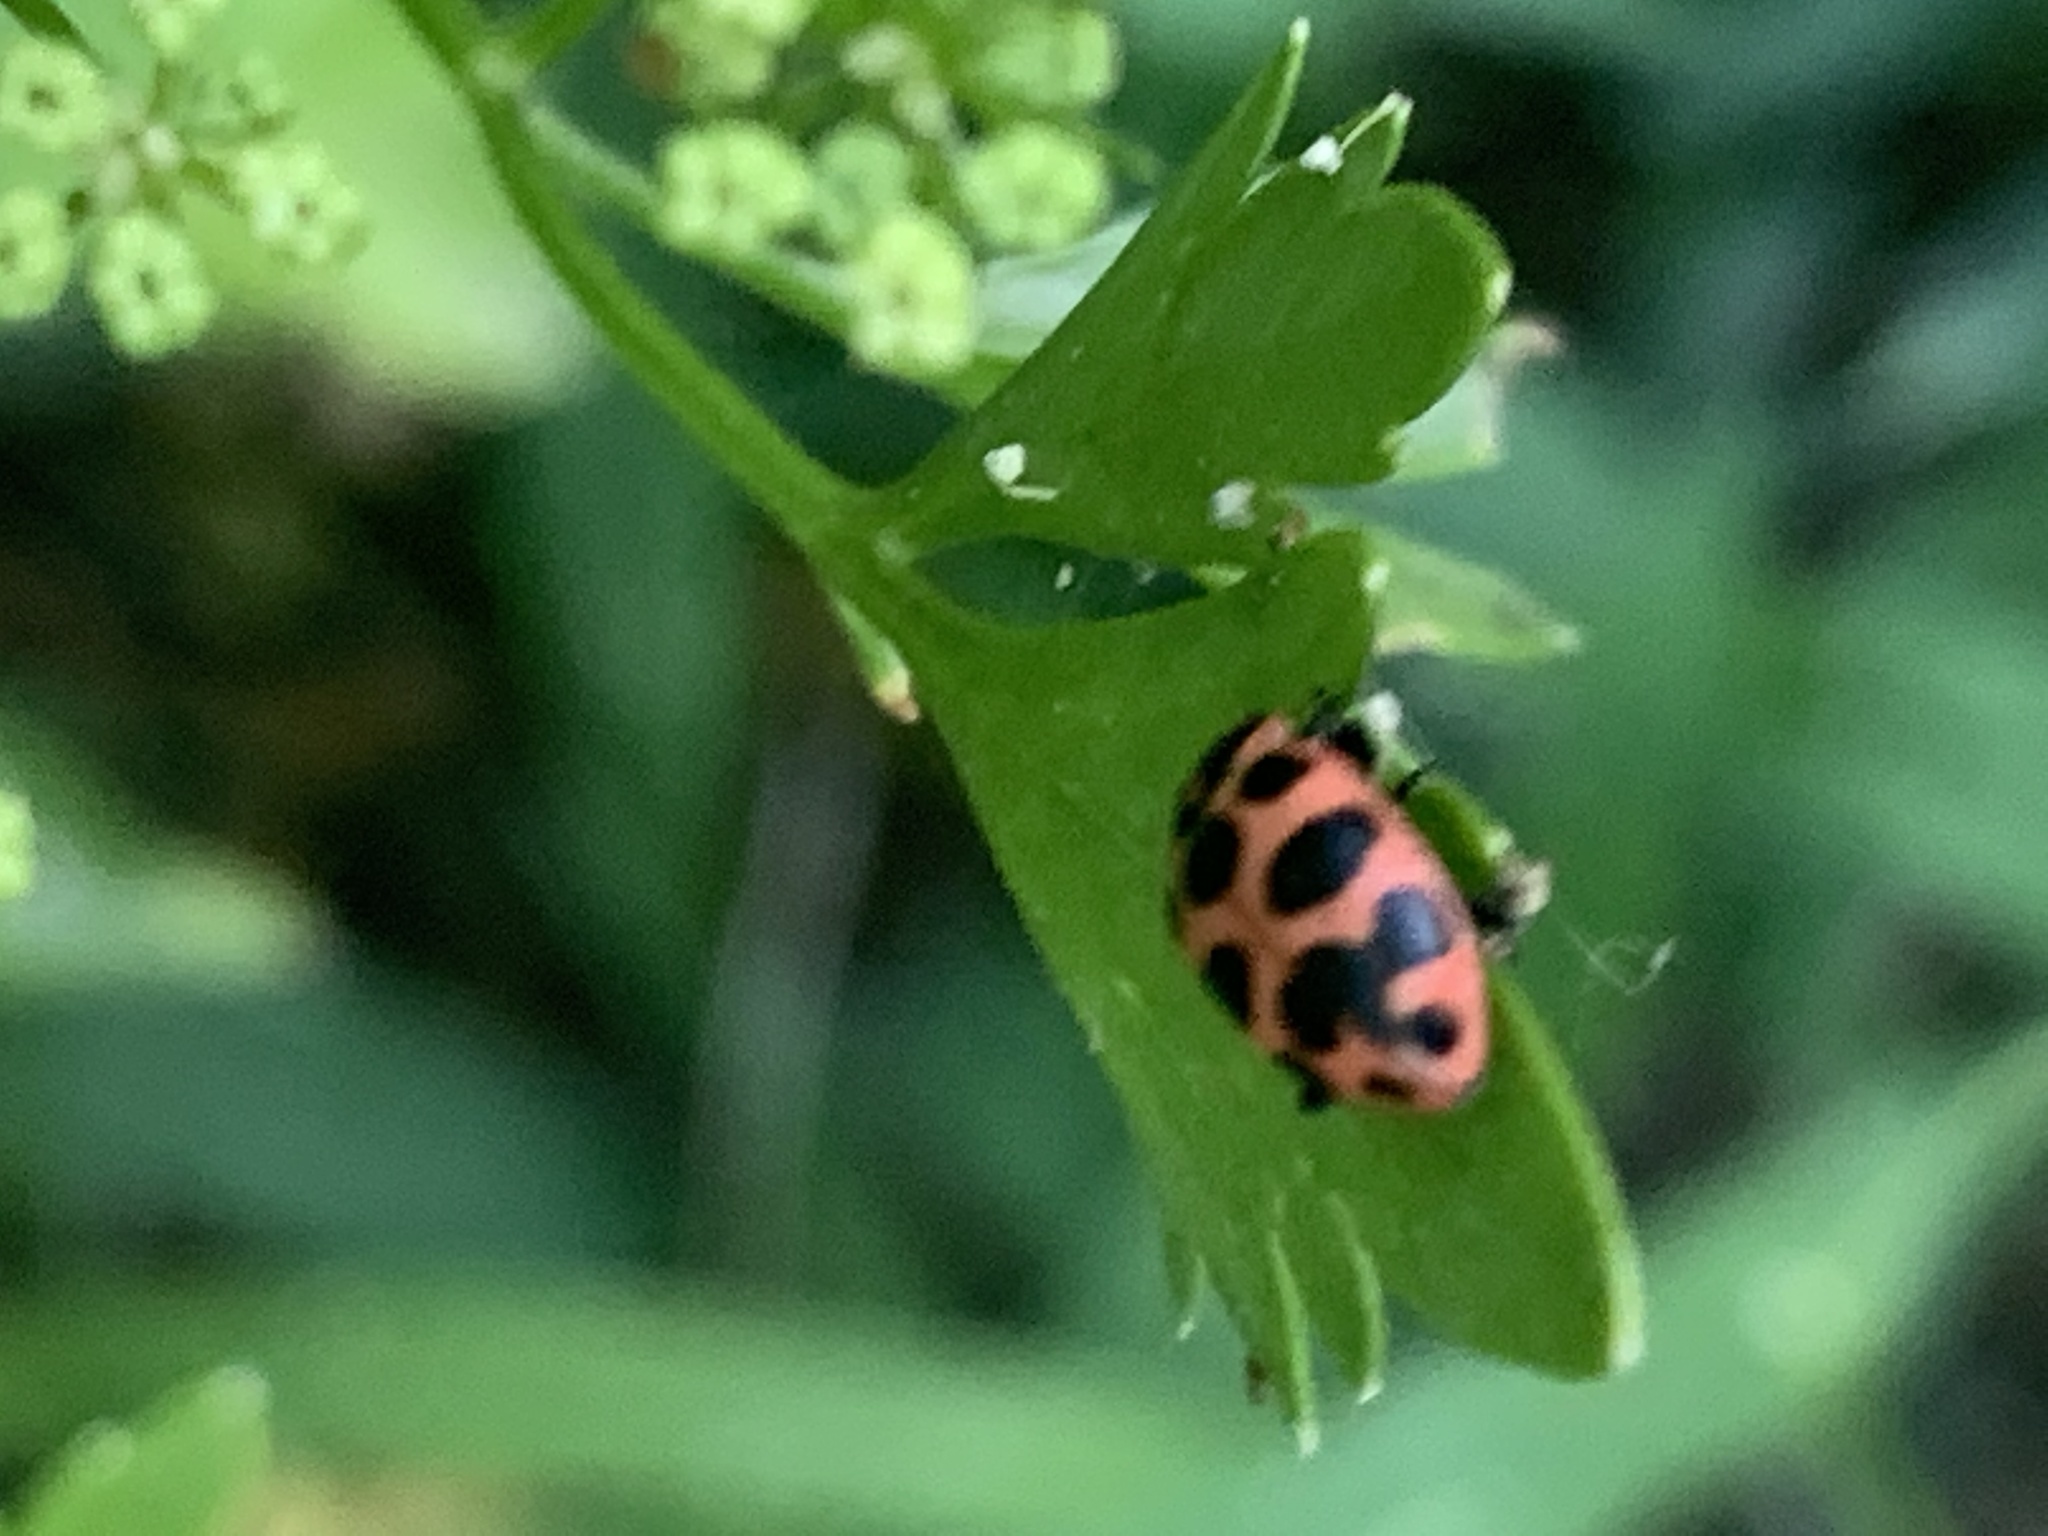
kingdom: Animalia
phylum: Arthropoda
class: Insecta
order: Coleoptera
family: Coccinellidae
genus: Coleomegilla
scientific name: Coleomegilla maculata
